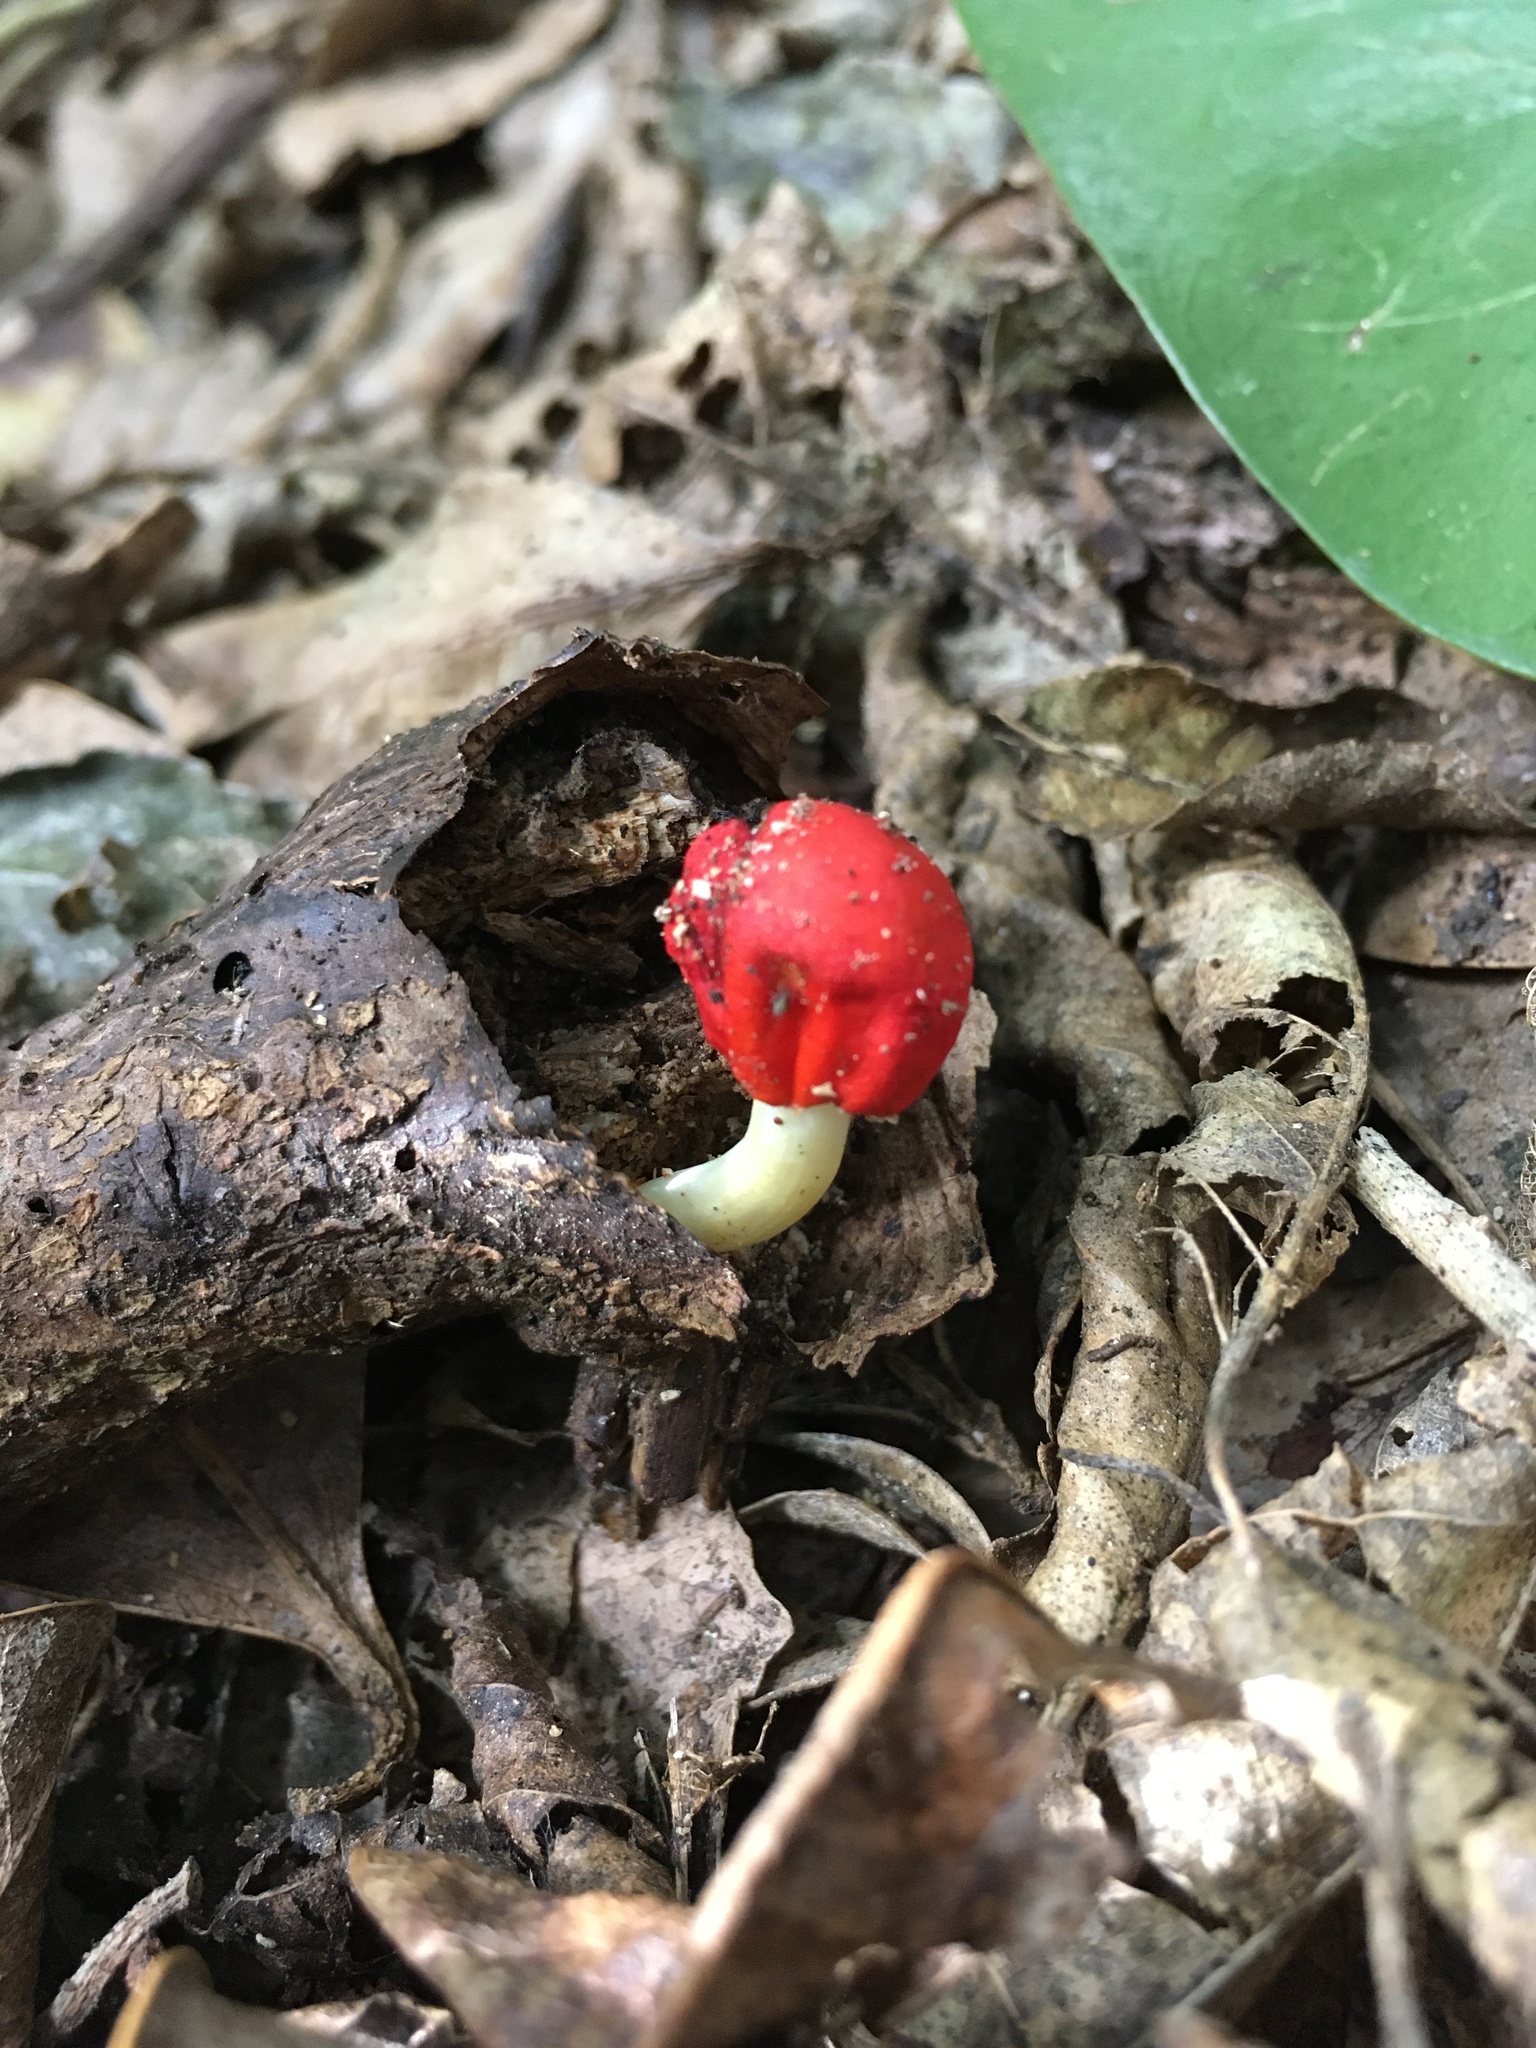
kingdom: Fungi
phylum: Basidiomycota
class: Agaricomycetes
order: Agaricales
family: Strophariaceae
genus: Leratiomyces
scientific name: Leratiomyces erythrocephalus
